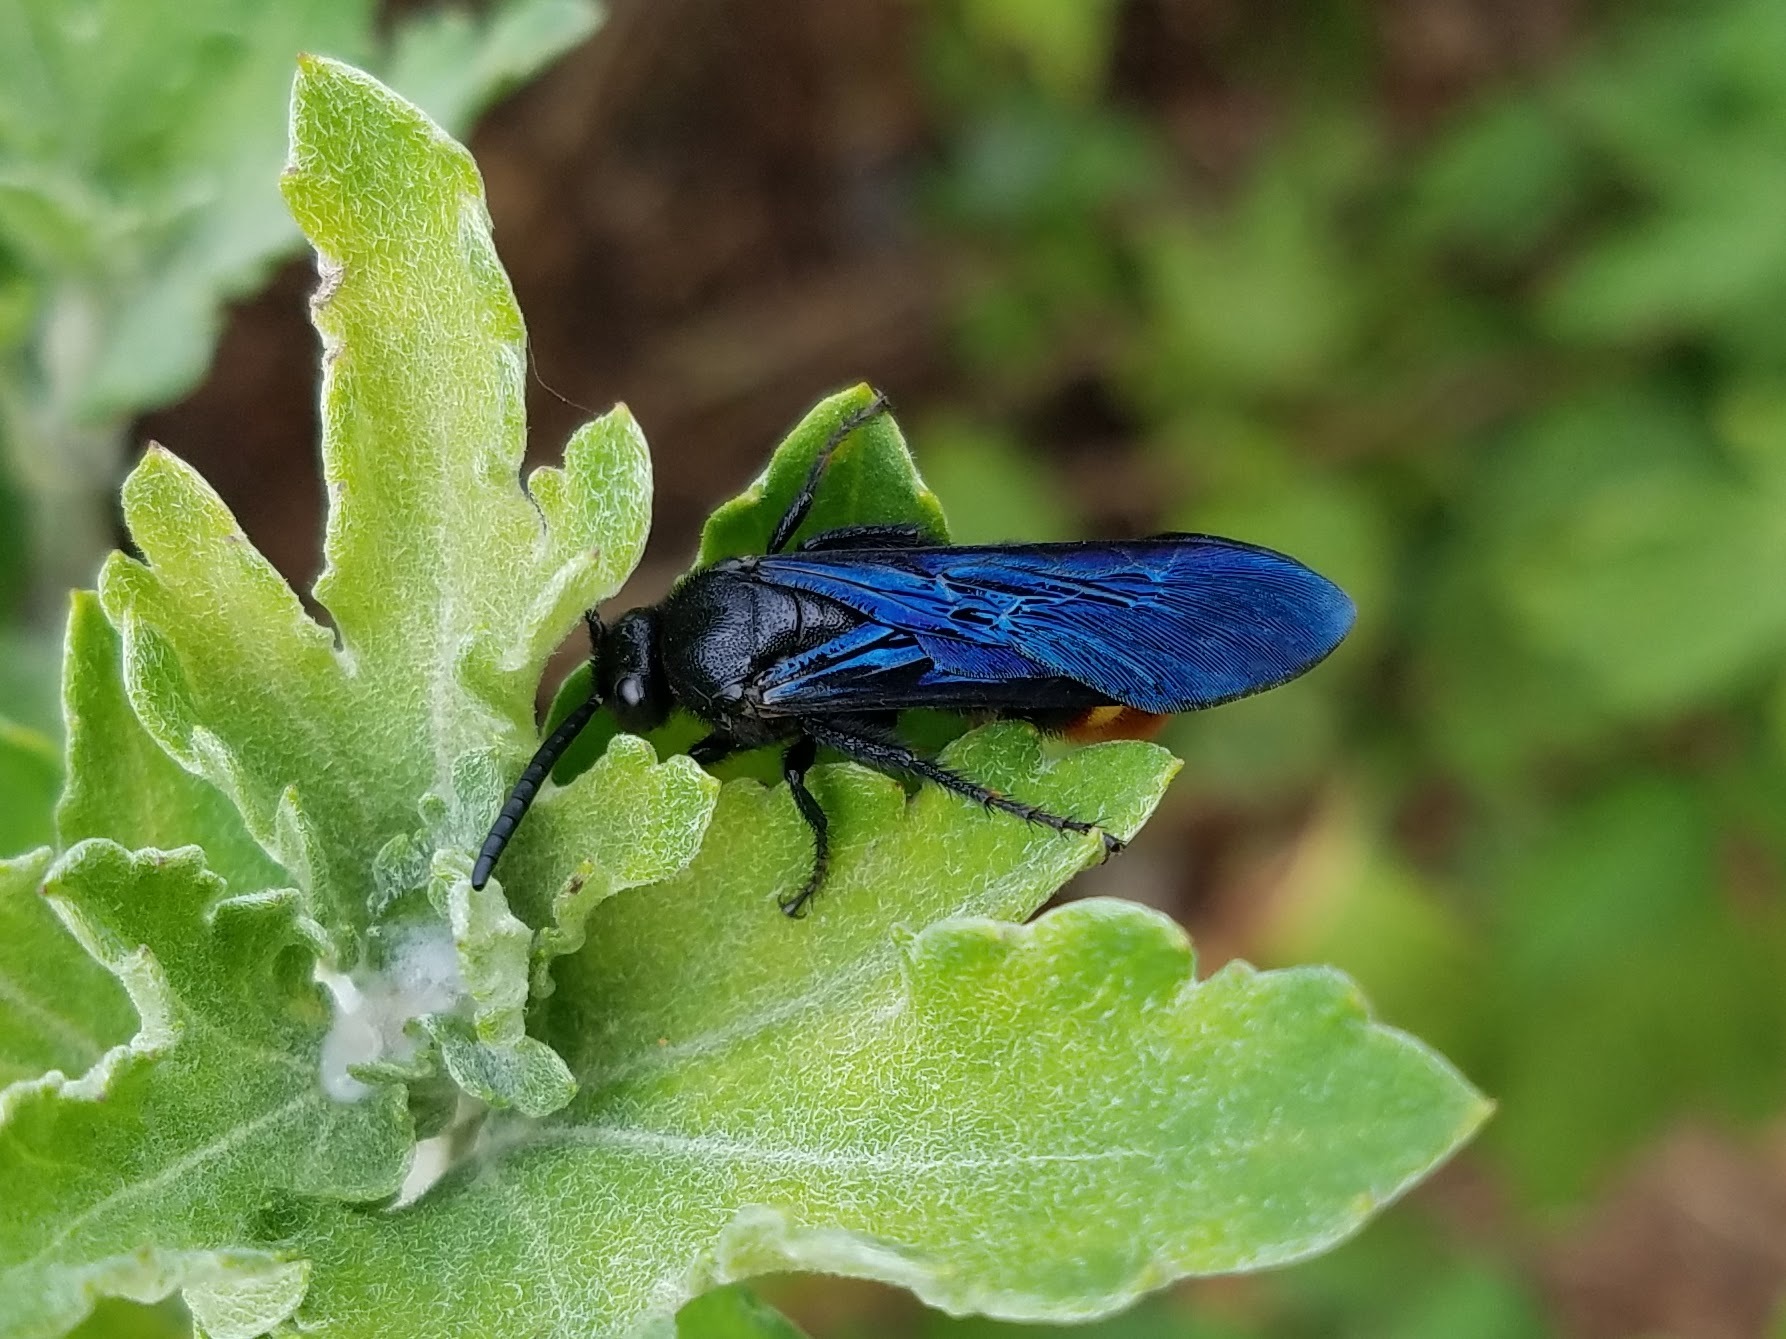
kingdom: Animalia
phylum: Arthropoda
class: Insecta
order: Hymenoptera
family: Scoliidae
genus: Scolia
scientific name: Scolia dubia
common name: Blue-winged scoliid wasp
